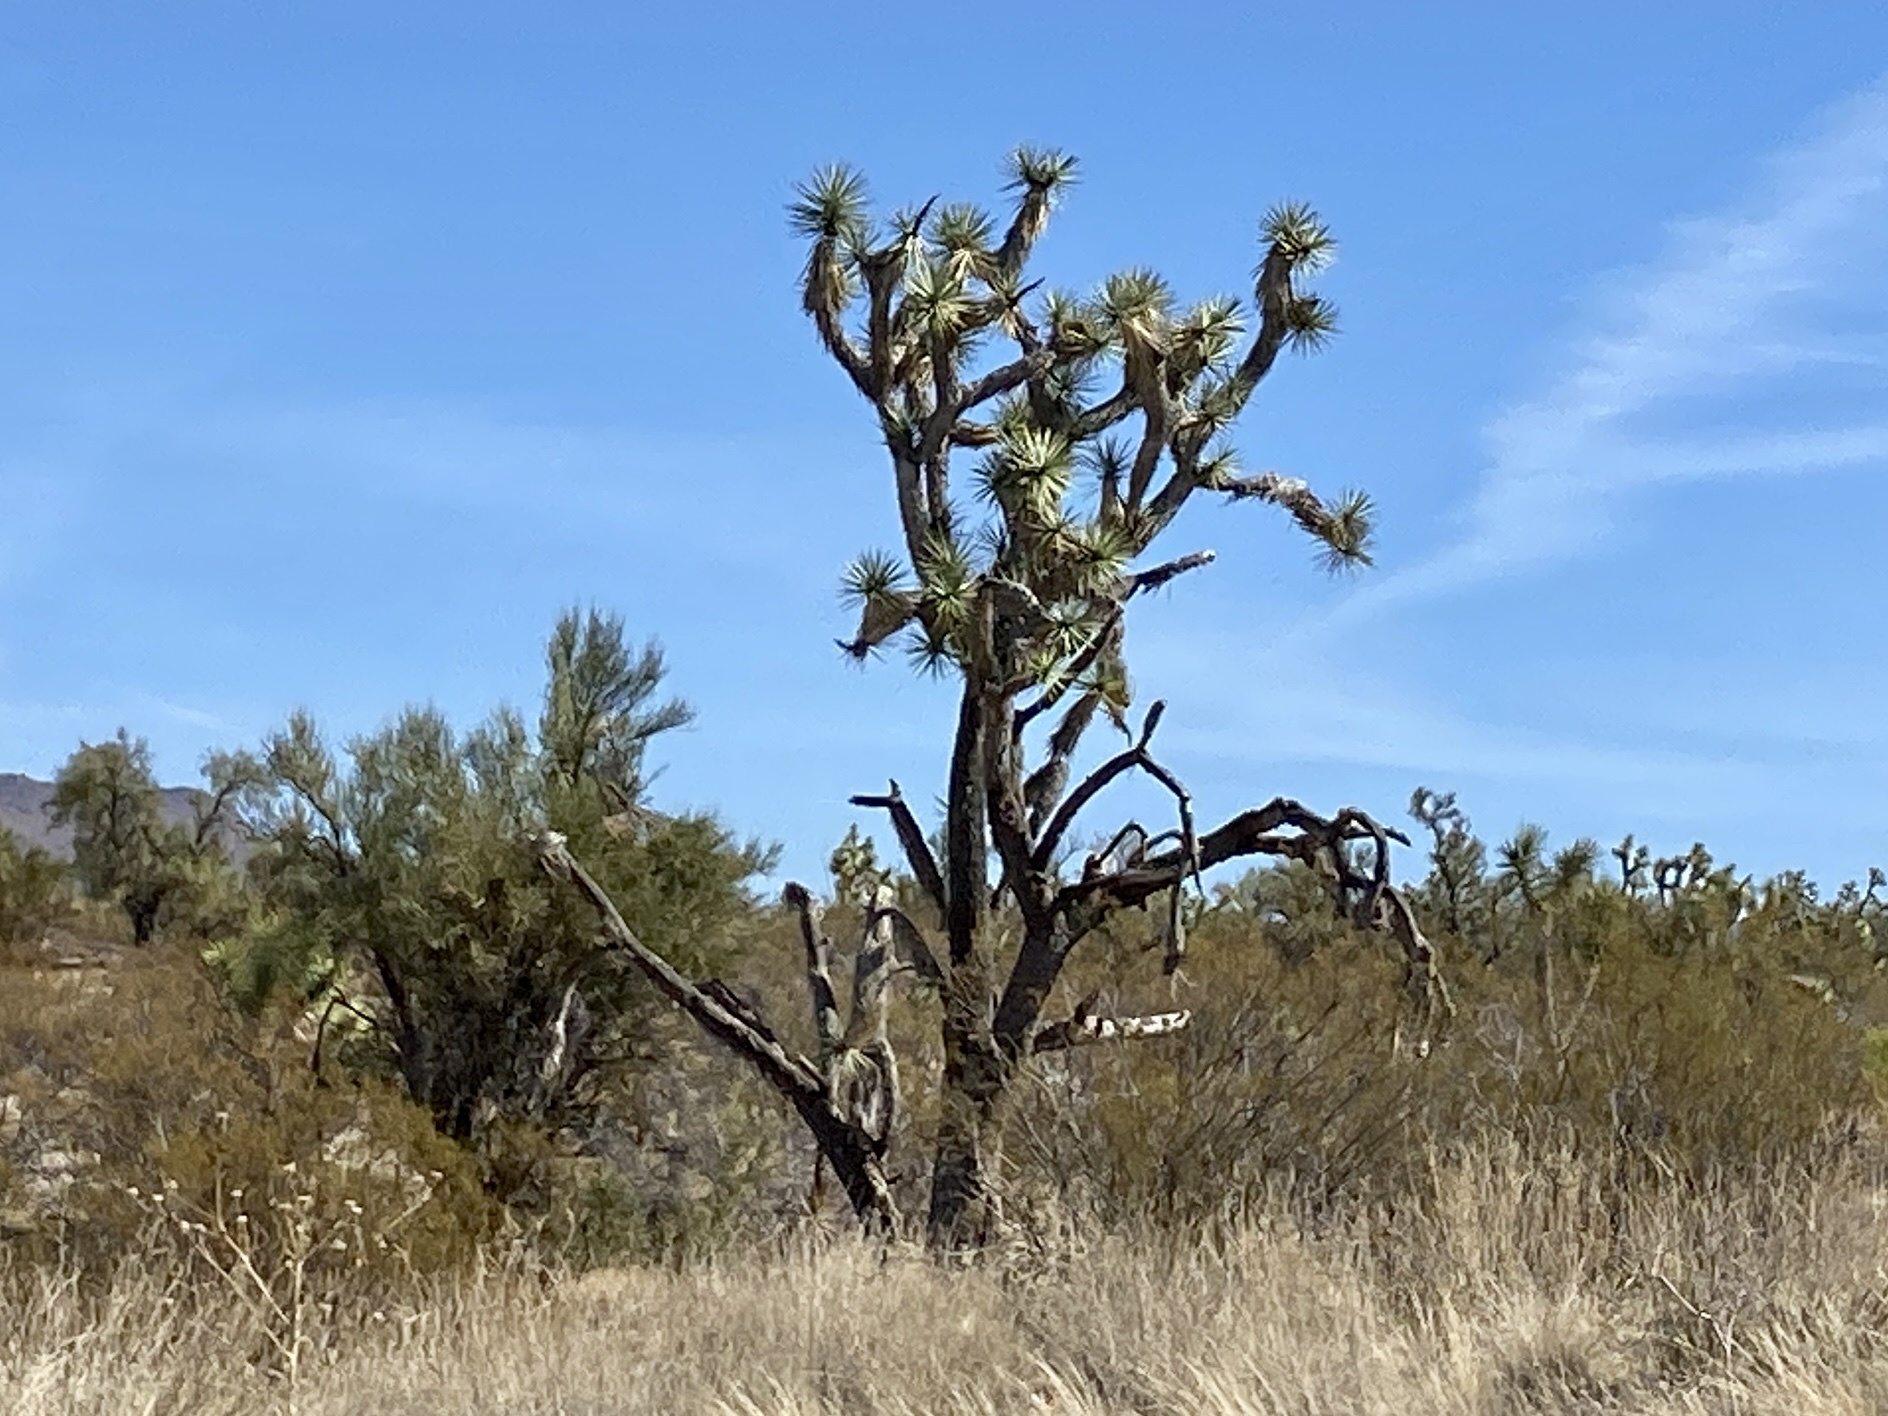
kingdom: Plantae
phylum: Tracheophyta
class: Liliopsida
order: Asparagales
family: Asparagaceae
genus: Yucca
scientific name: Yucca brevifolia
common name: Joshua tree
